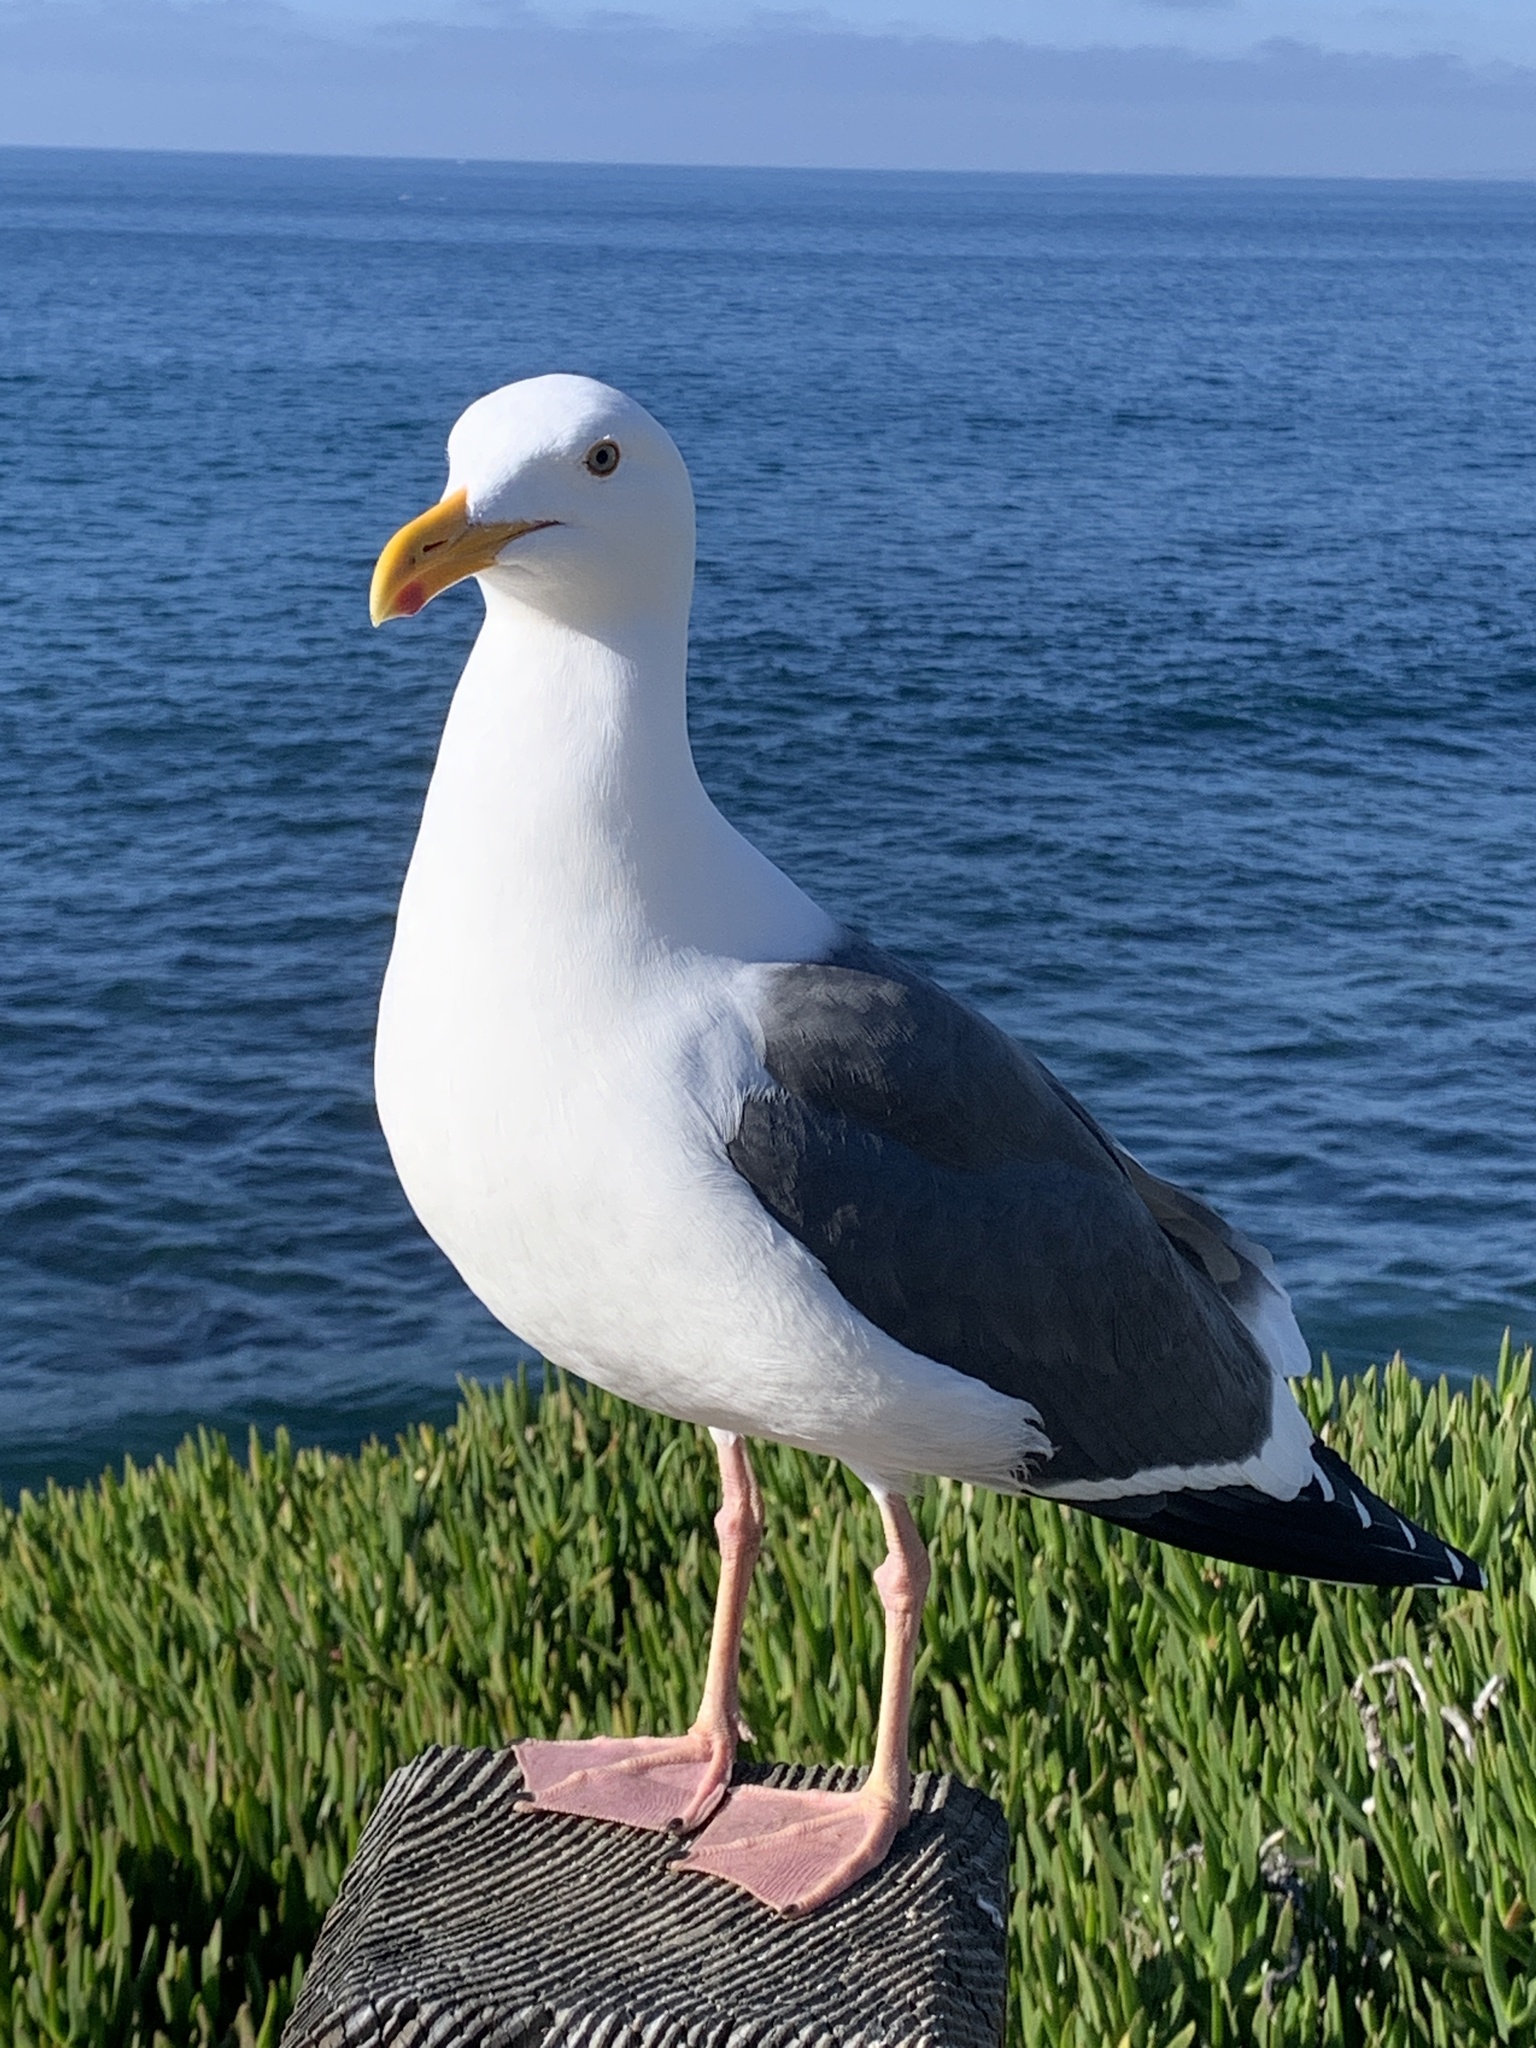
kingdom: Animalia
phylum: Chordata
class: Aves
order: Charadriiformes
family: Laridae
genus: Larus
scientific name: Larus occidentalis
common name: Western gull
